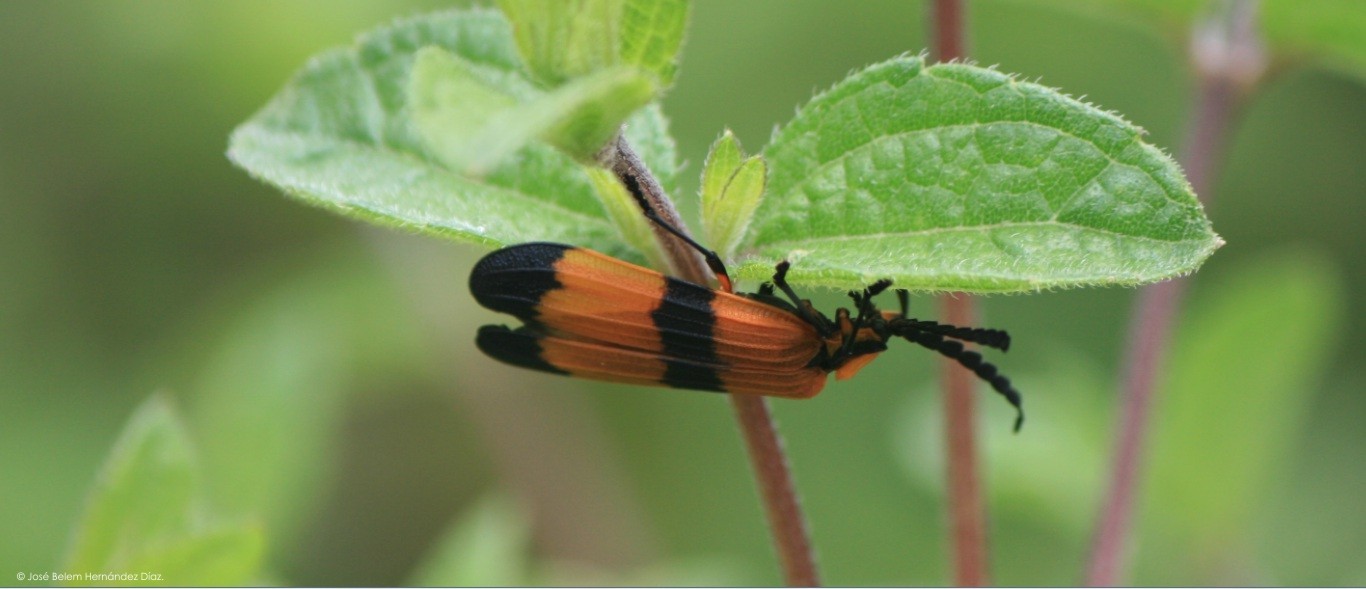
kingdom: Animalia
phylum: Arthropoda
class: Insecta
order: Coleoptera
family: Lycidae
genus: Calopteron
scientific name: Calopteron reticulatum
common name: Banded net-winged beetle
